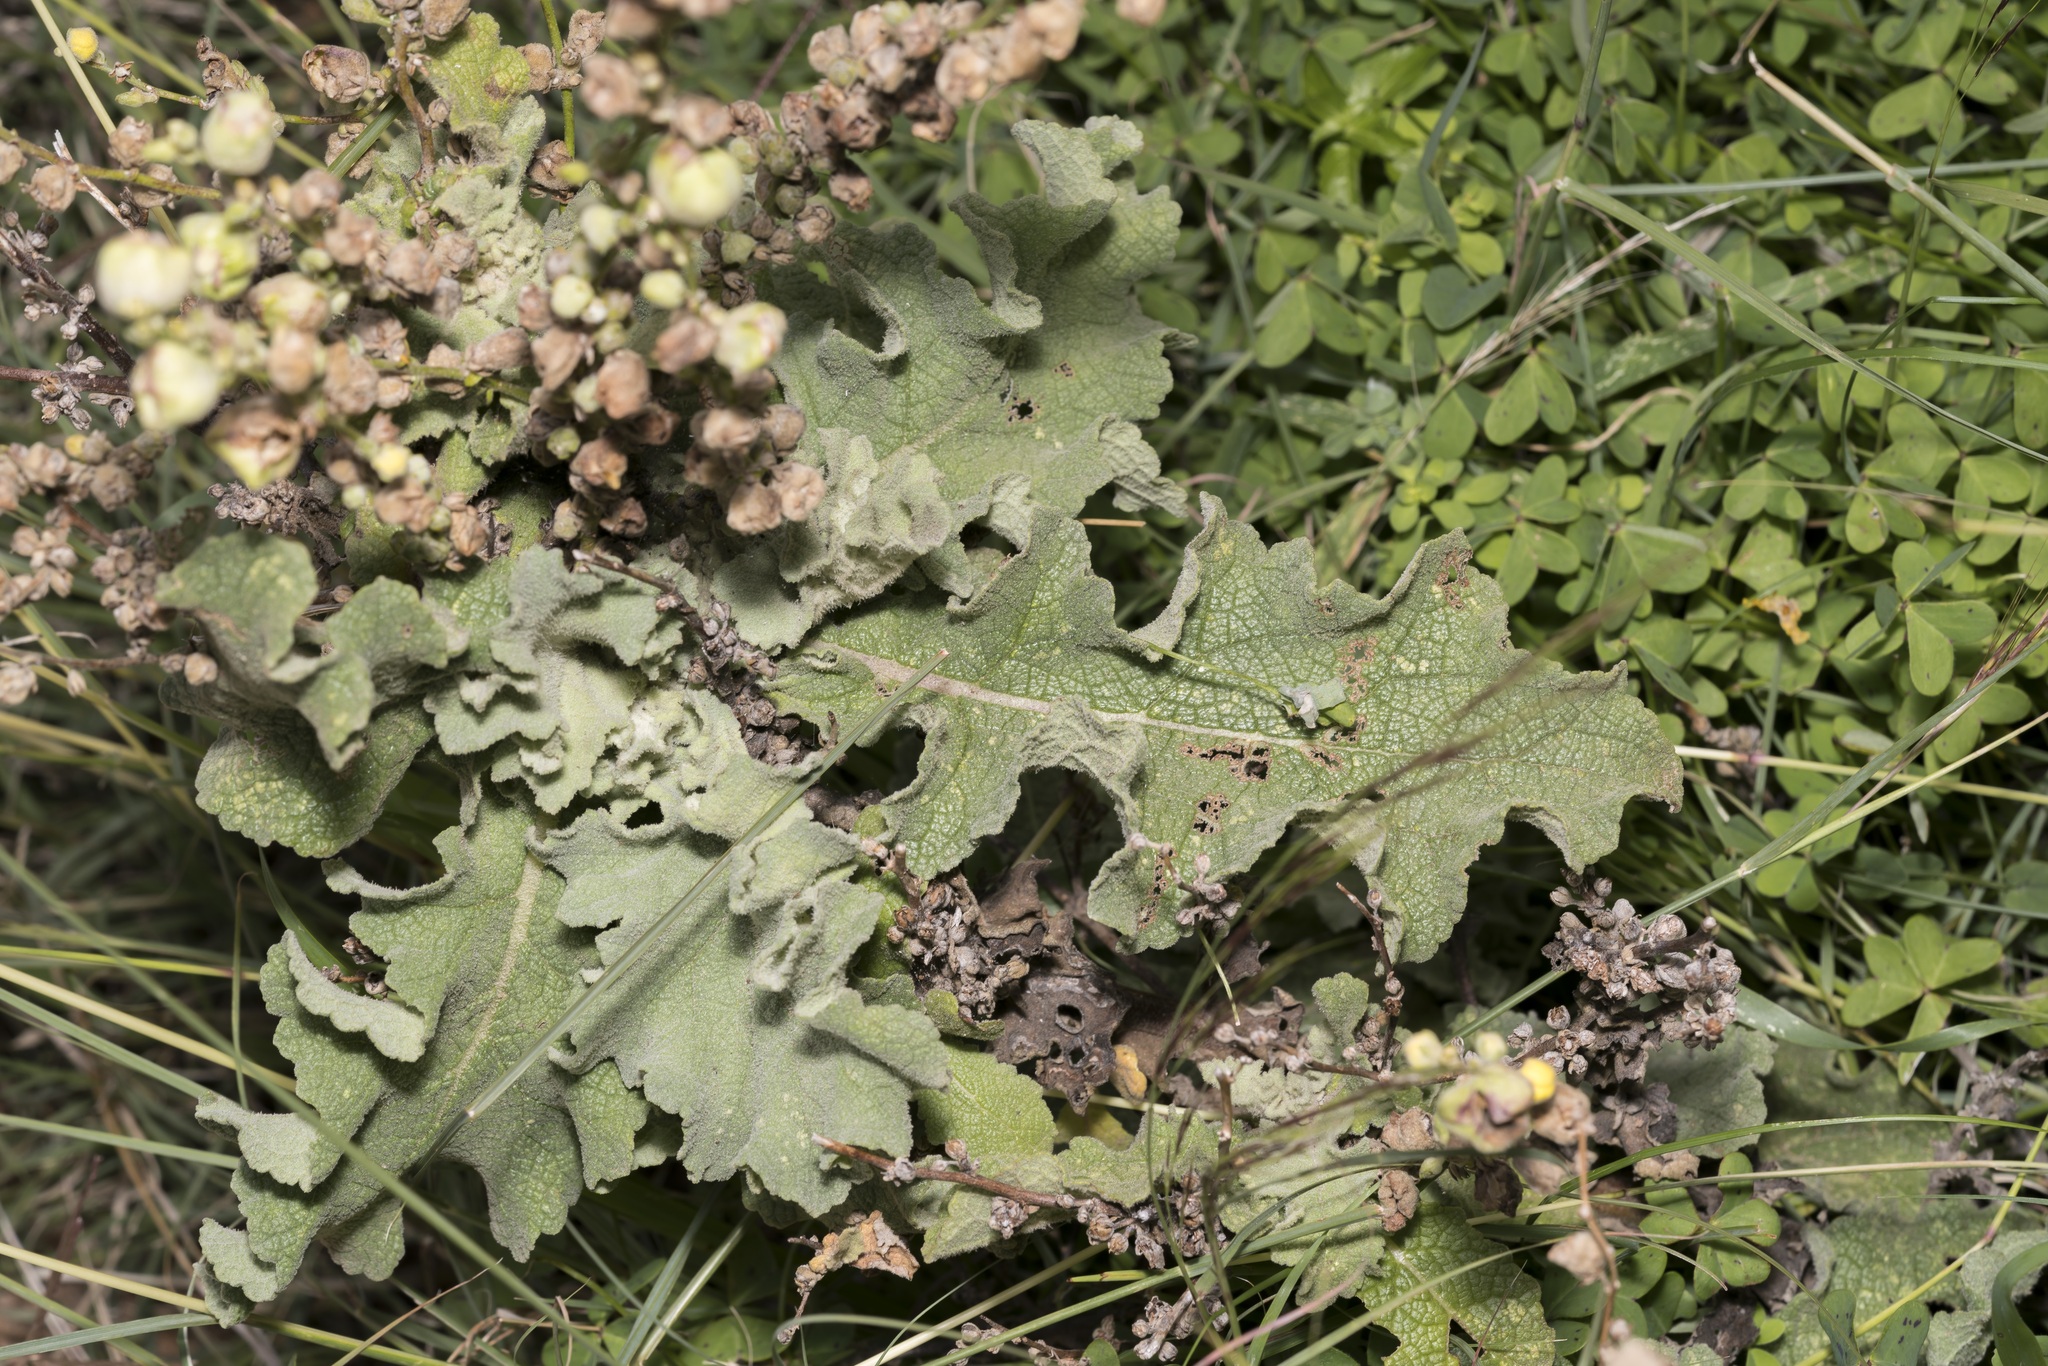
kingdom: Plantae
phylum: Tracheophyta
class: Magnoliopsida
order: Lamiales
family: Scrophulariaceae
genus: Verbascum
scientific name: Verbascum sinuatum
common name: Wavyleaf mullein
